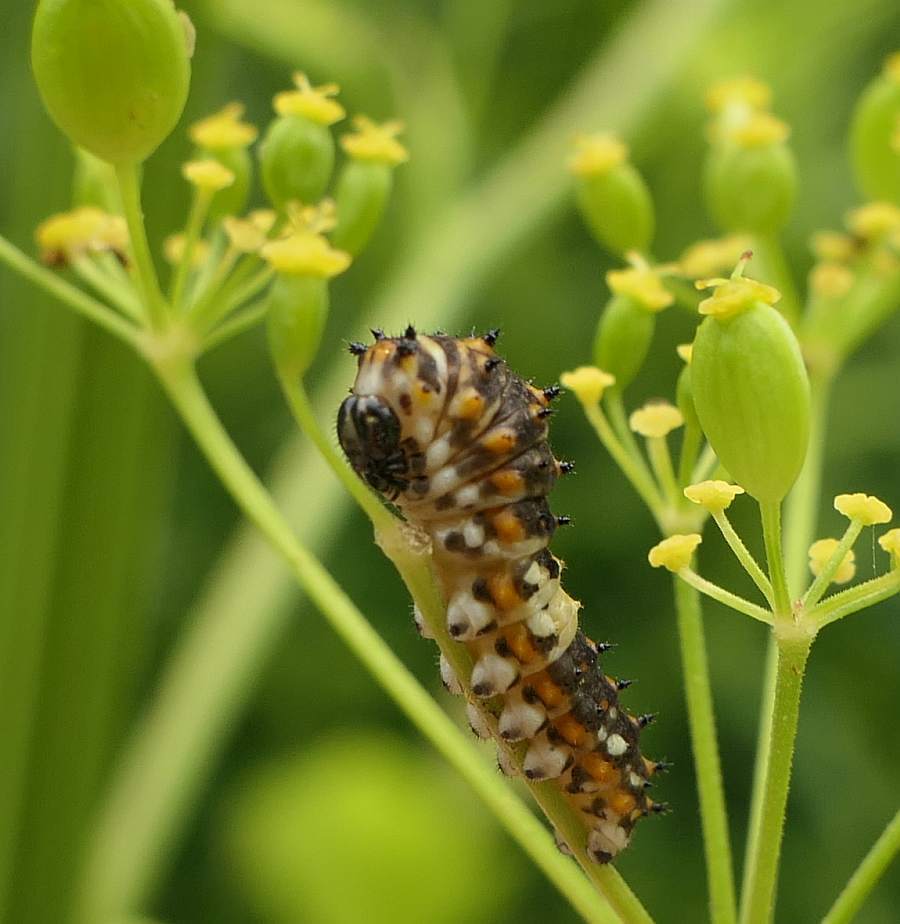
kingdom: Animalia
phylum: Arthropoda
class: Insecta
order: Lepidoptera
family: Papilionidae
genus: Papilio
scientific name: Papilio polyxenes
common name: Black swallowtail
